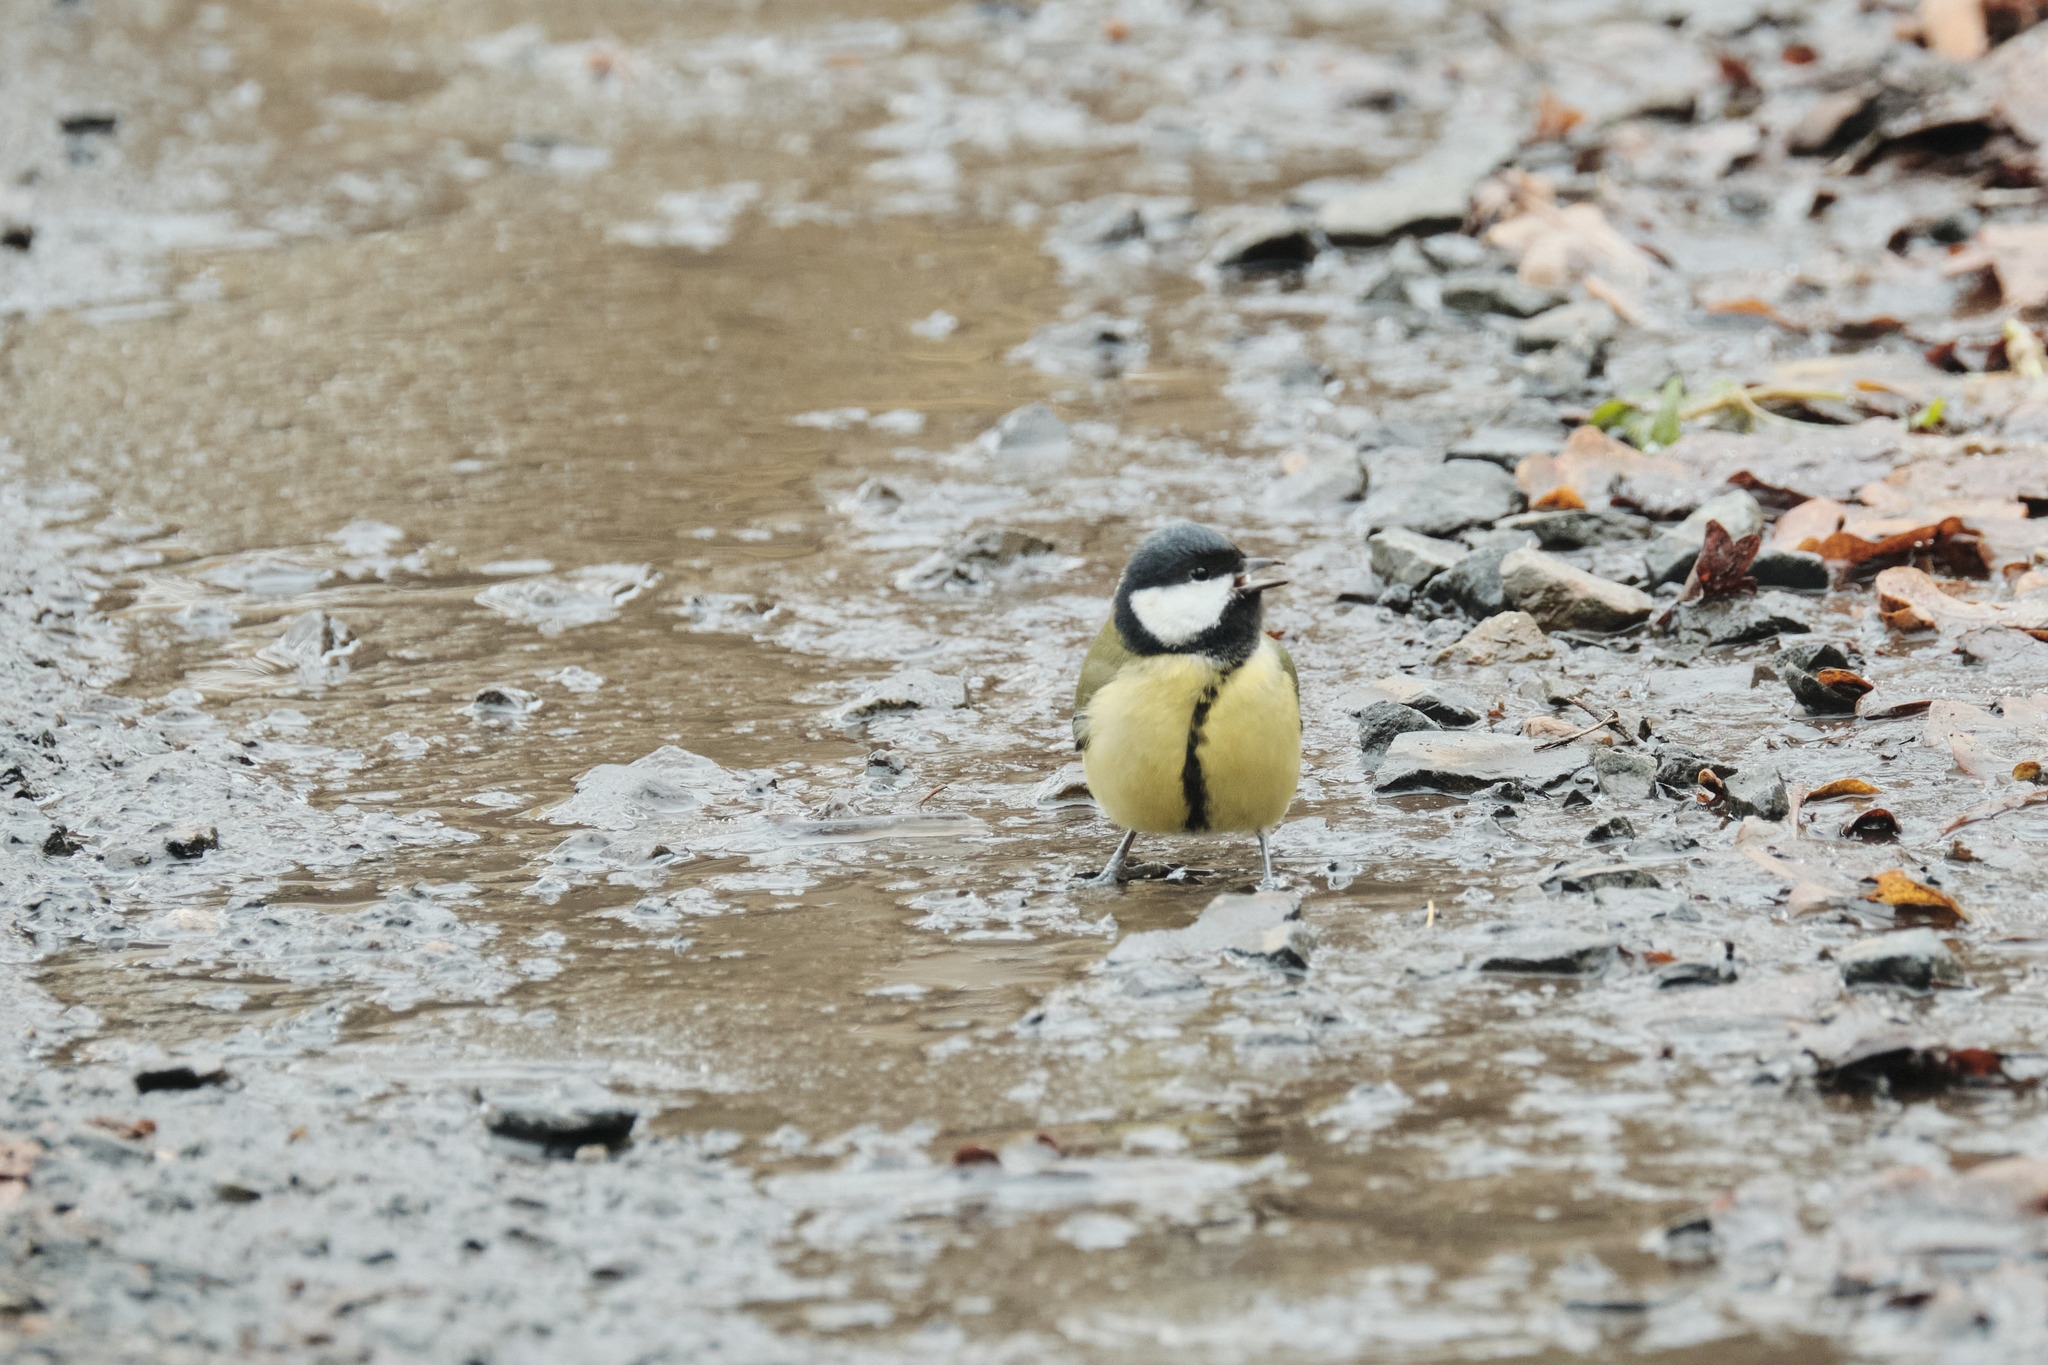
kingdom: Animalia
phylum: Chordata
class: Aves
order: Passeriformes
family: Paridae
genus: Parus
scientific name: Parus major
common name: Great tit
